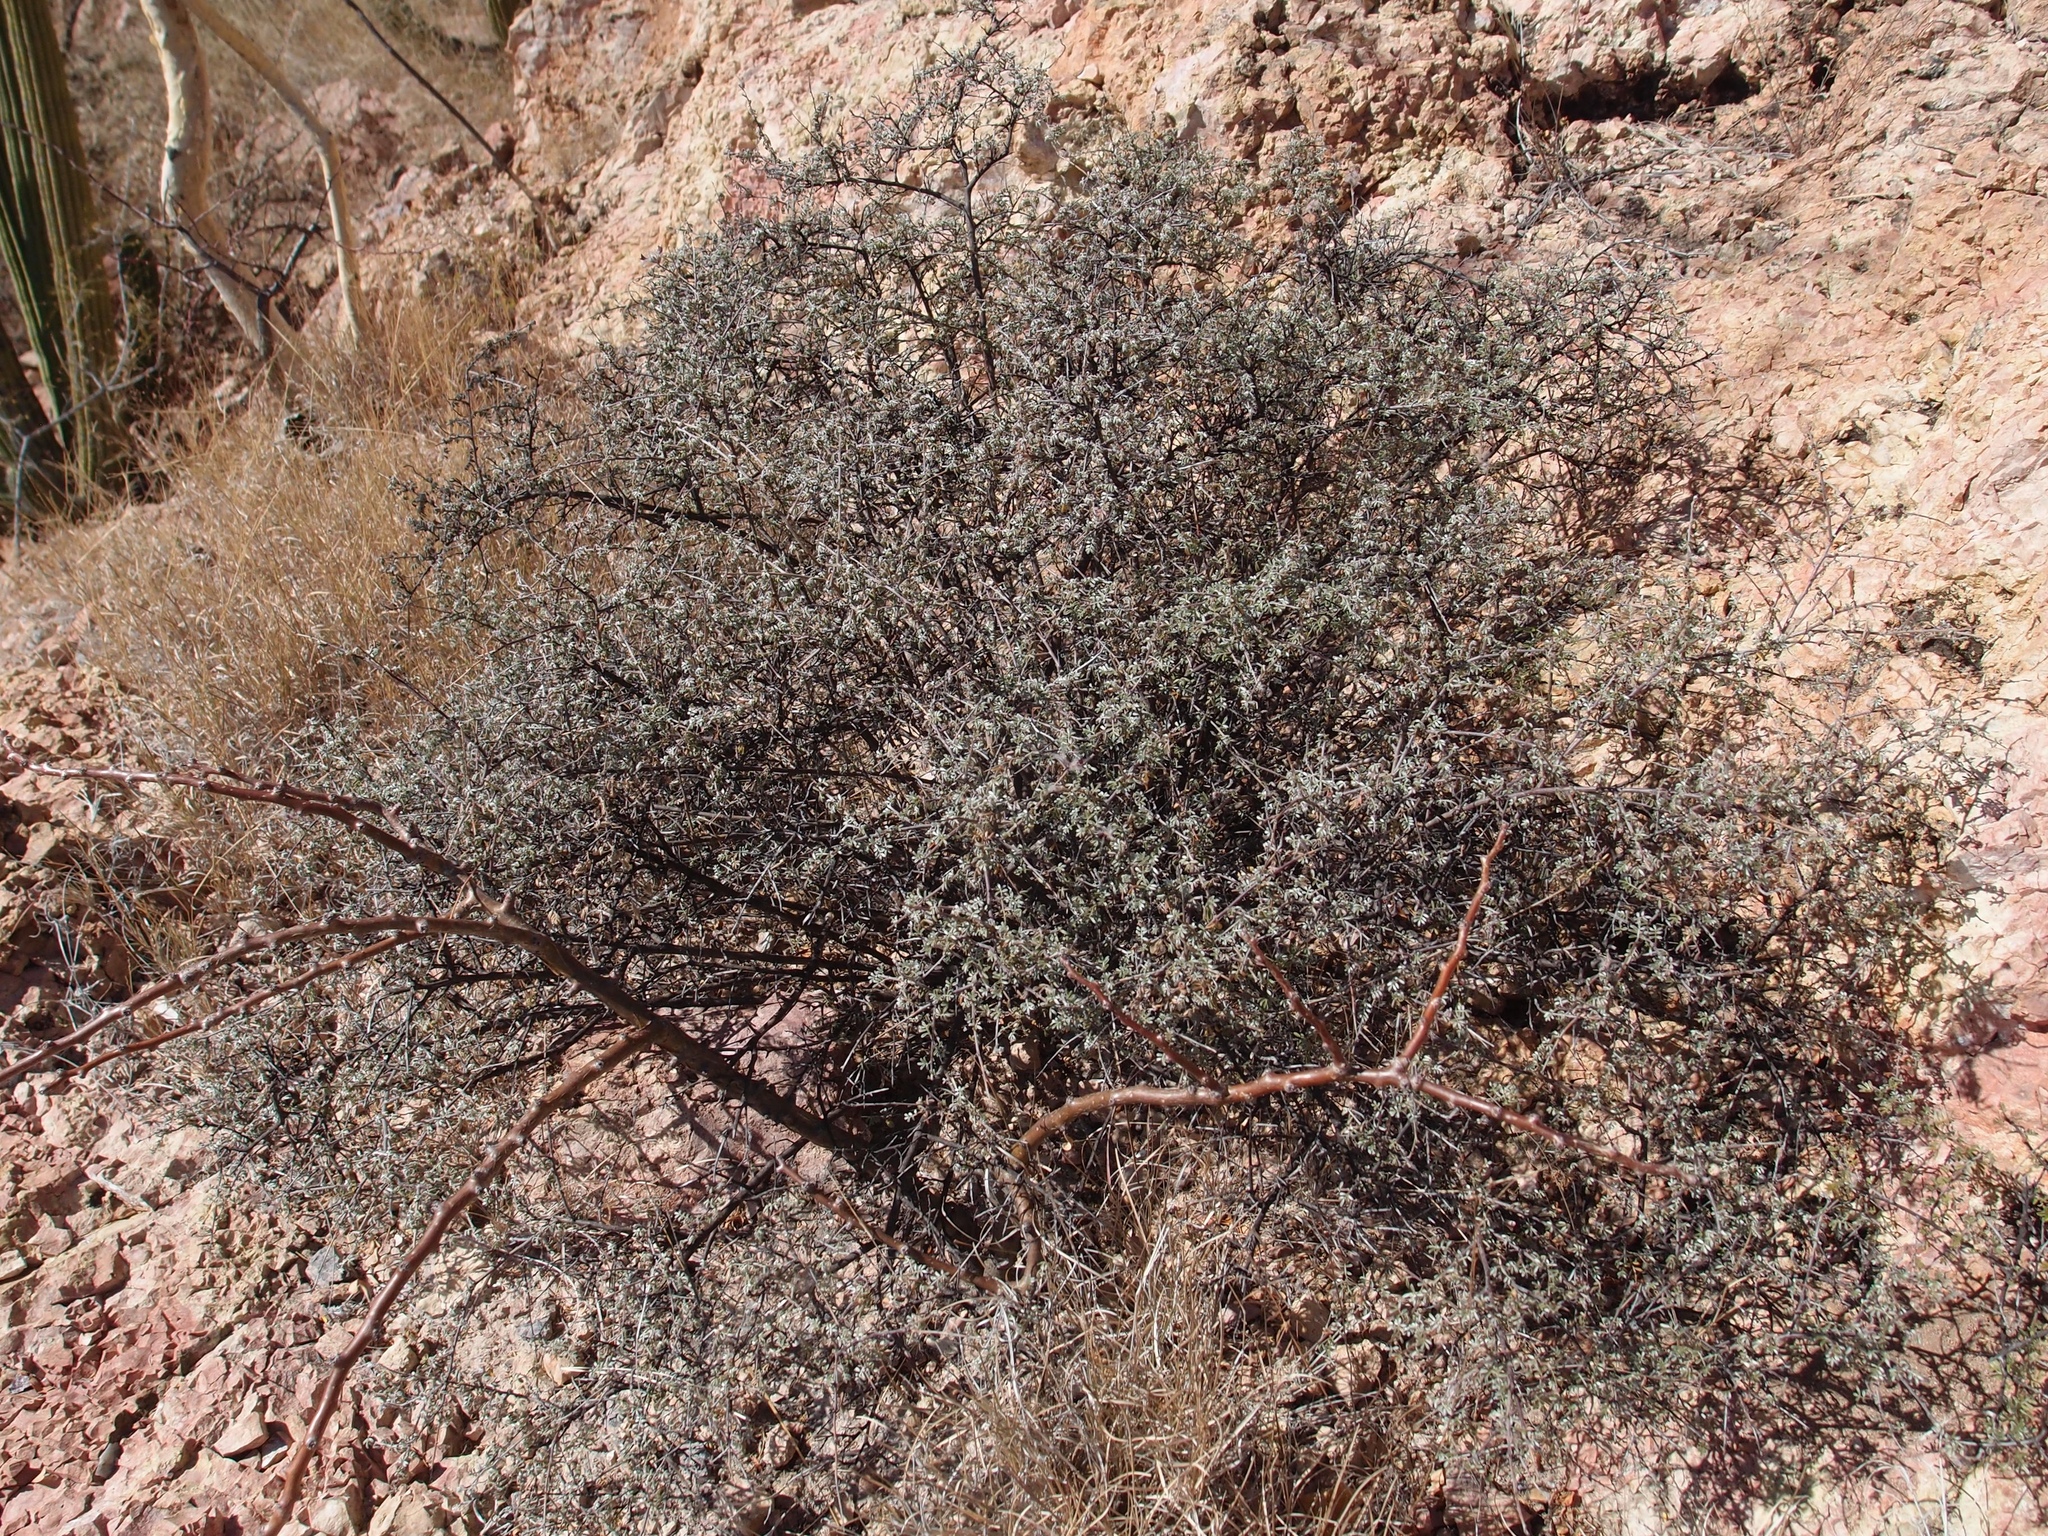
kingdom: Plantae
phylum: Tracheophyta
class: Magnoliopsida
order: Fabales
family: Fabaceae
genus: Dalea
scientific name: Dalea purpusii
